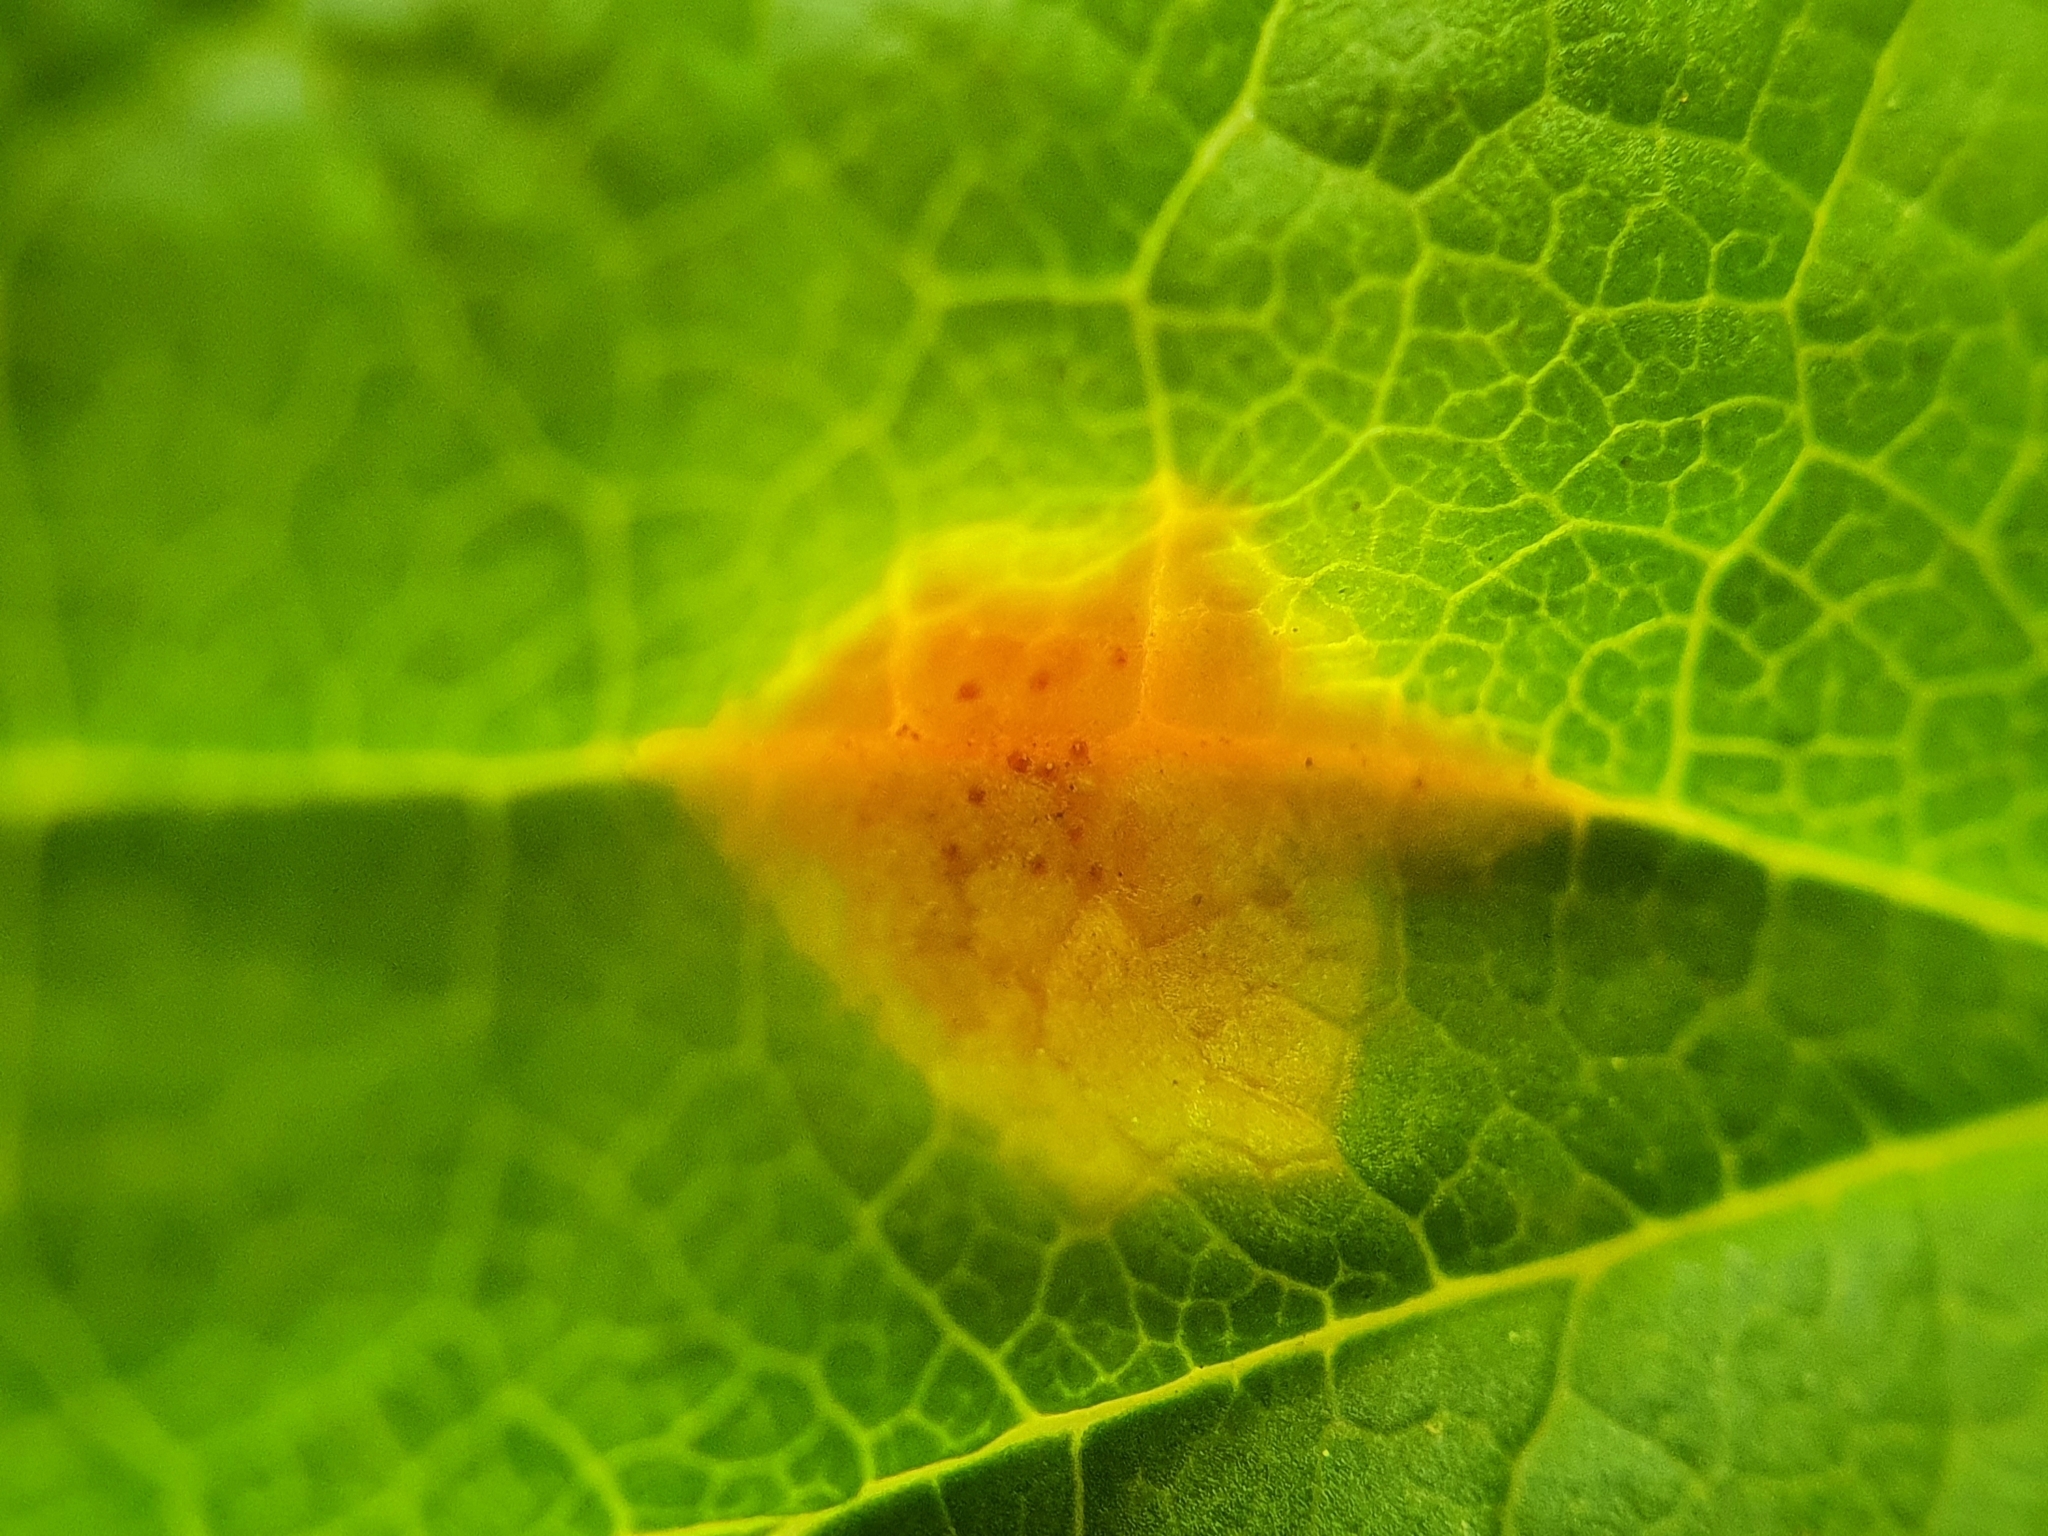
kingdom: Fungi
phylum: Basidiomycota
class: Pucciniomycetes
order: Pucciniales
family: Pucciniaceae
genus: Puccinia
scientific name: Puccinia caricina
